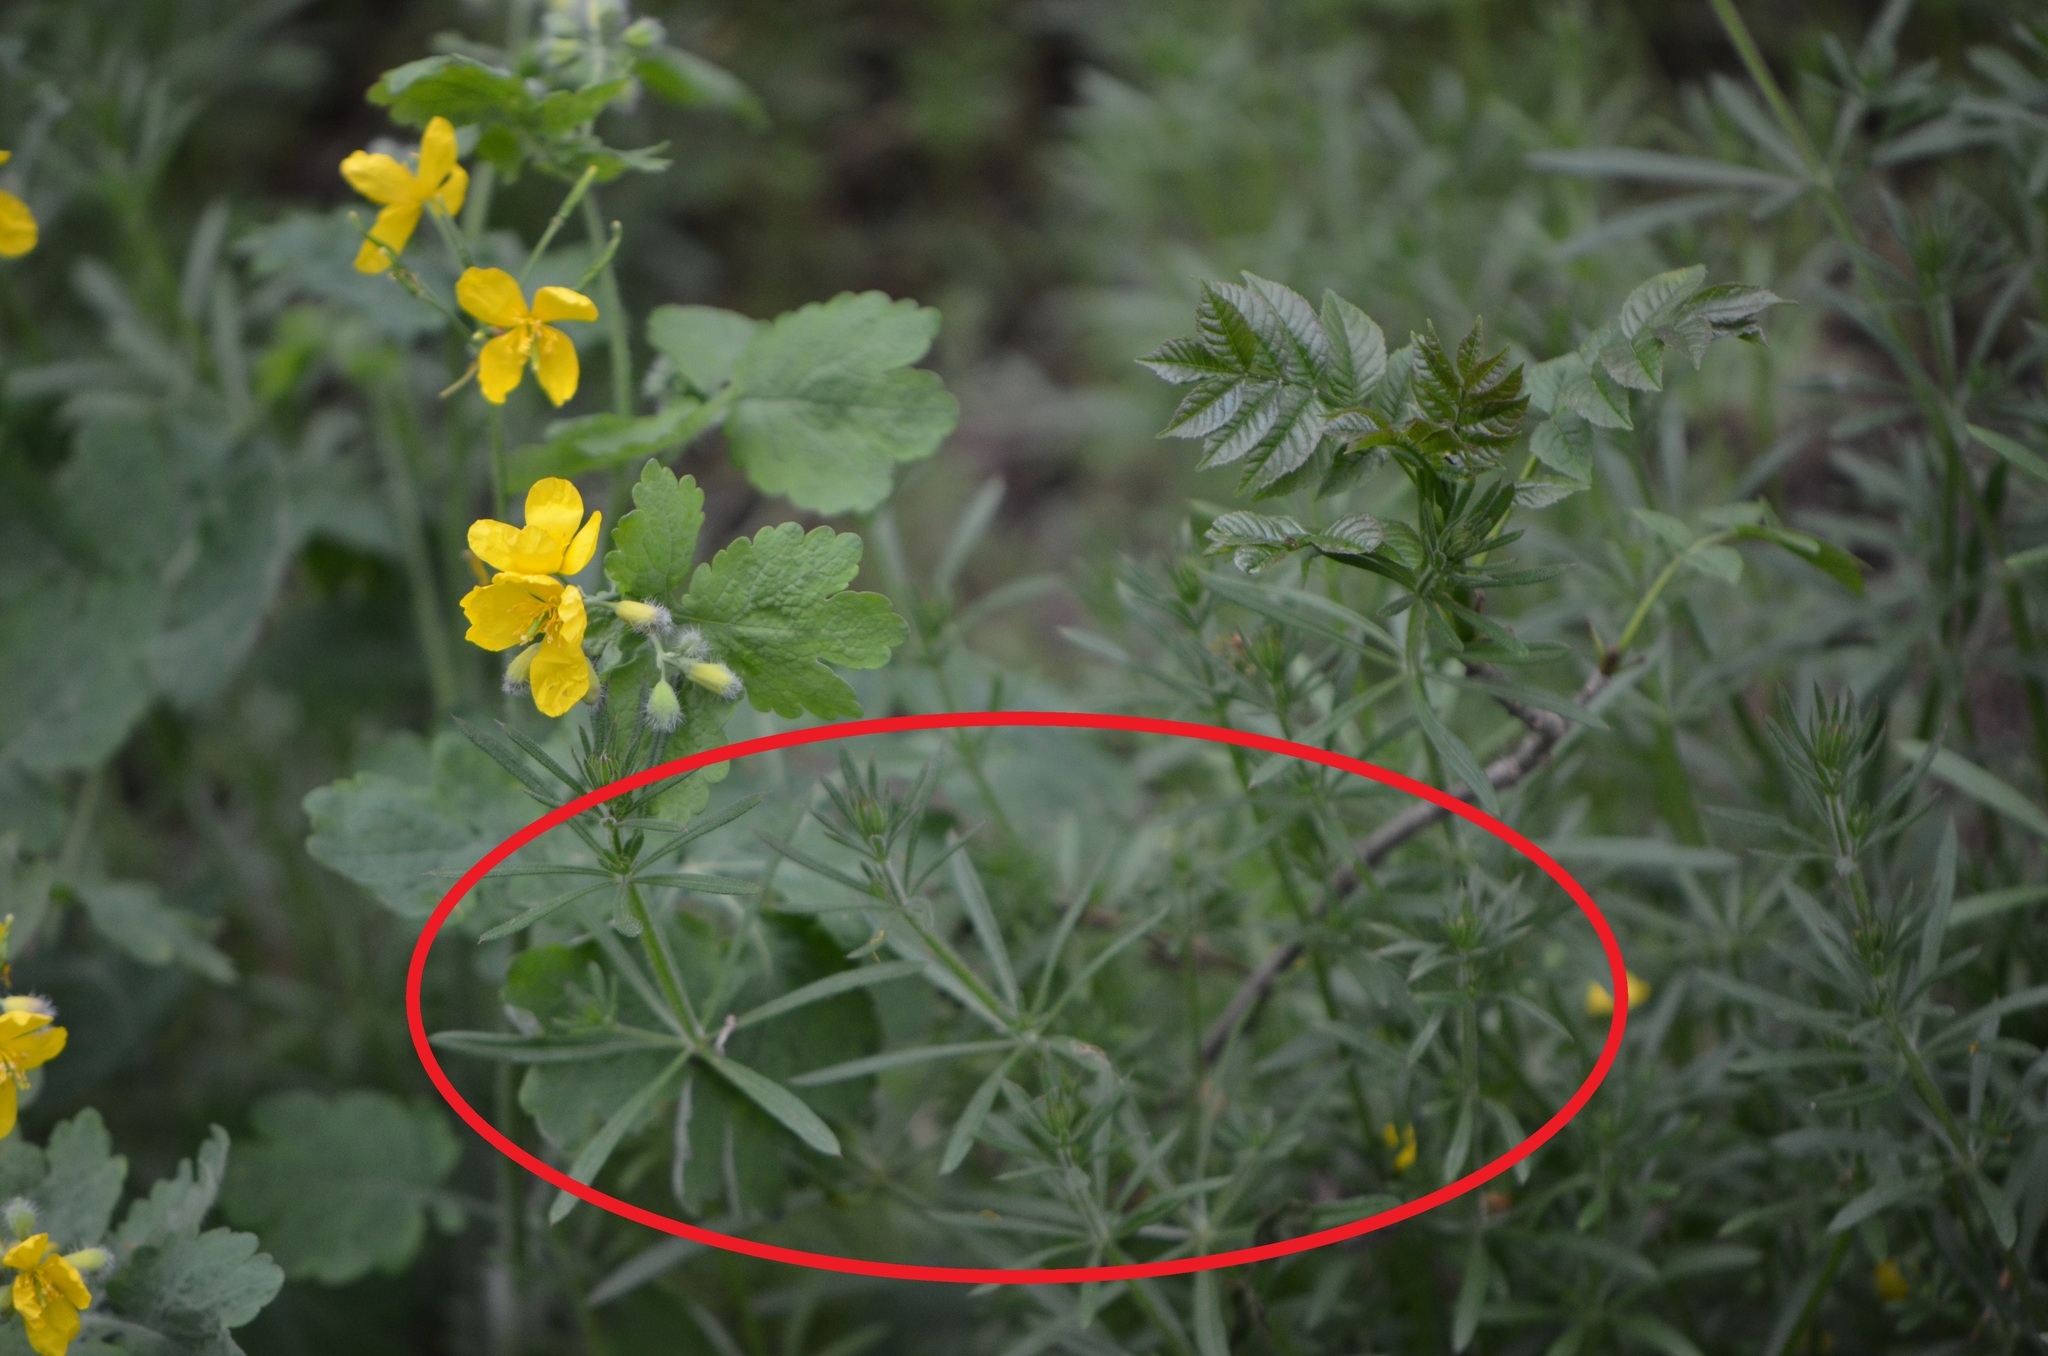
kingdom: Plantae
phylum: Tracheophyta
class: Magnoliopsida
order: Gentianales
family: Rubiaceae
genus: Galium
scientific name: Galium aparine
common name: Cleavers
